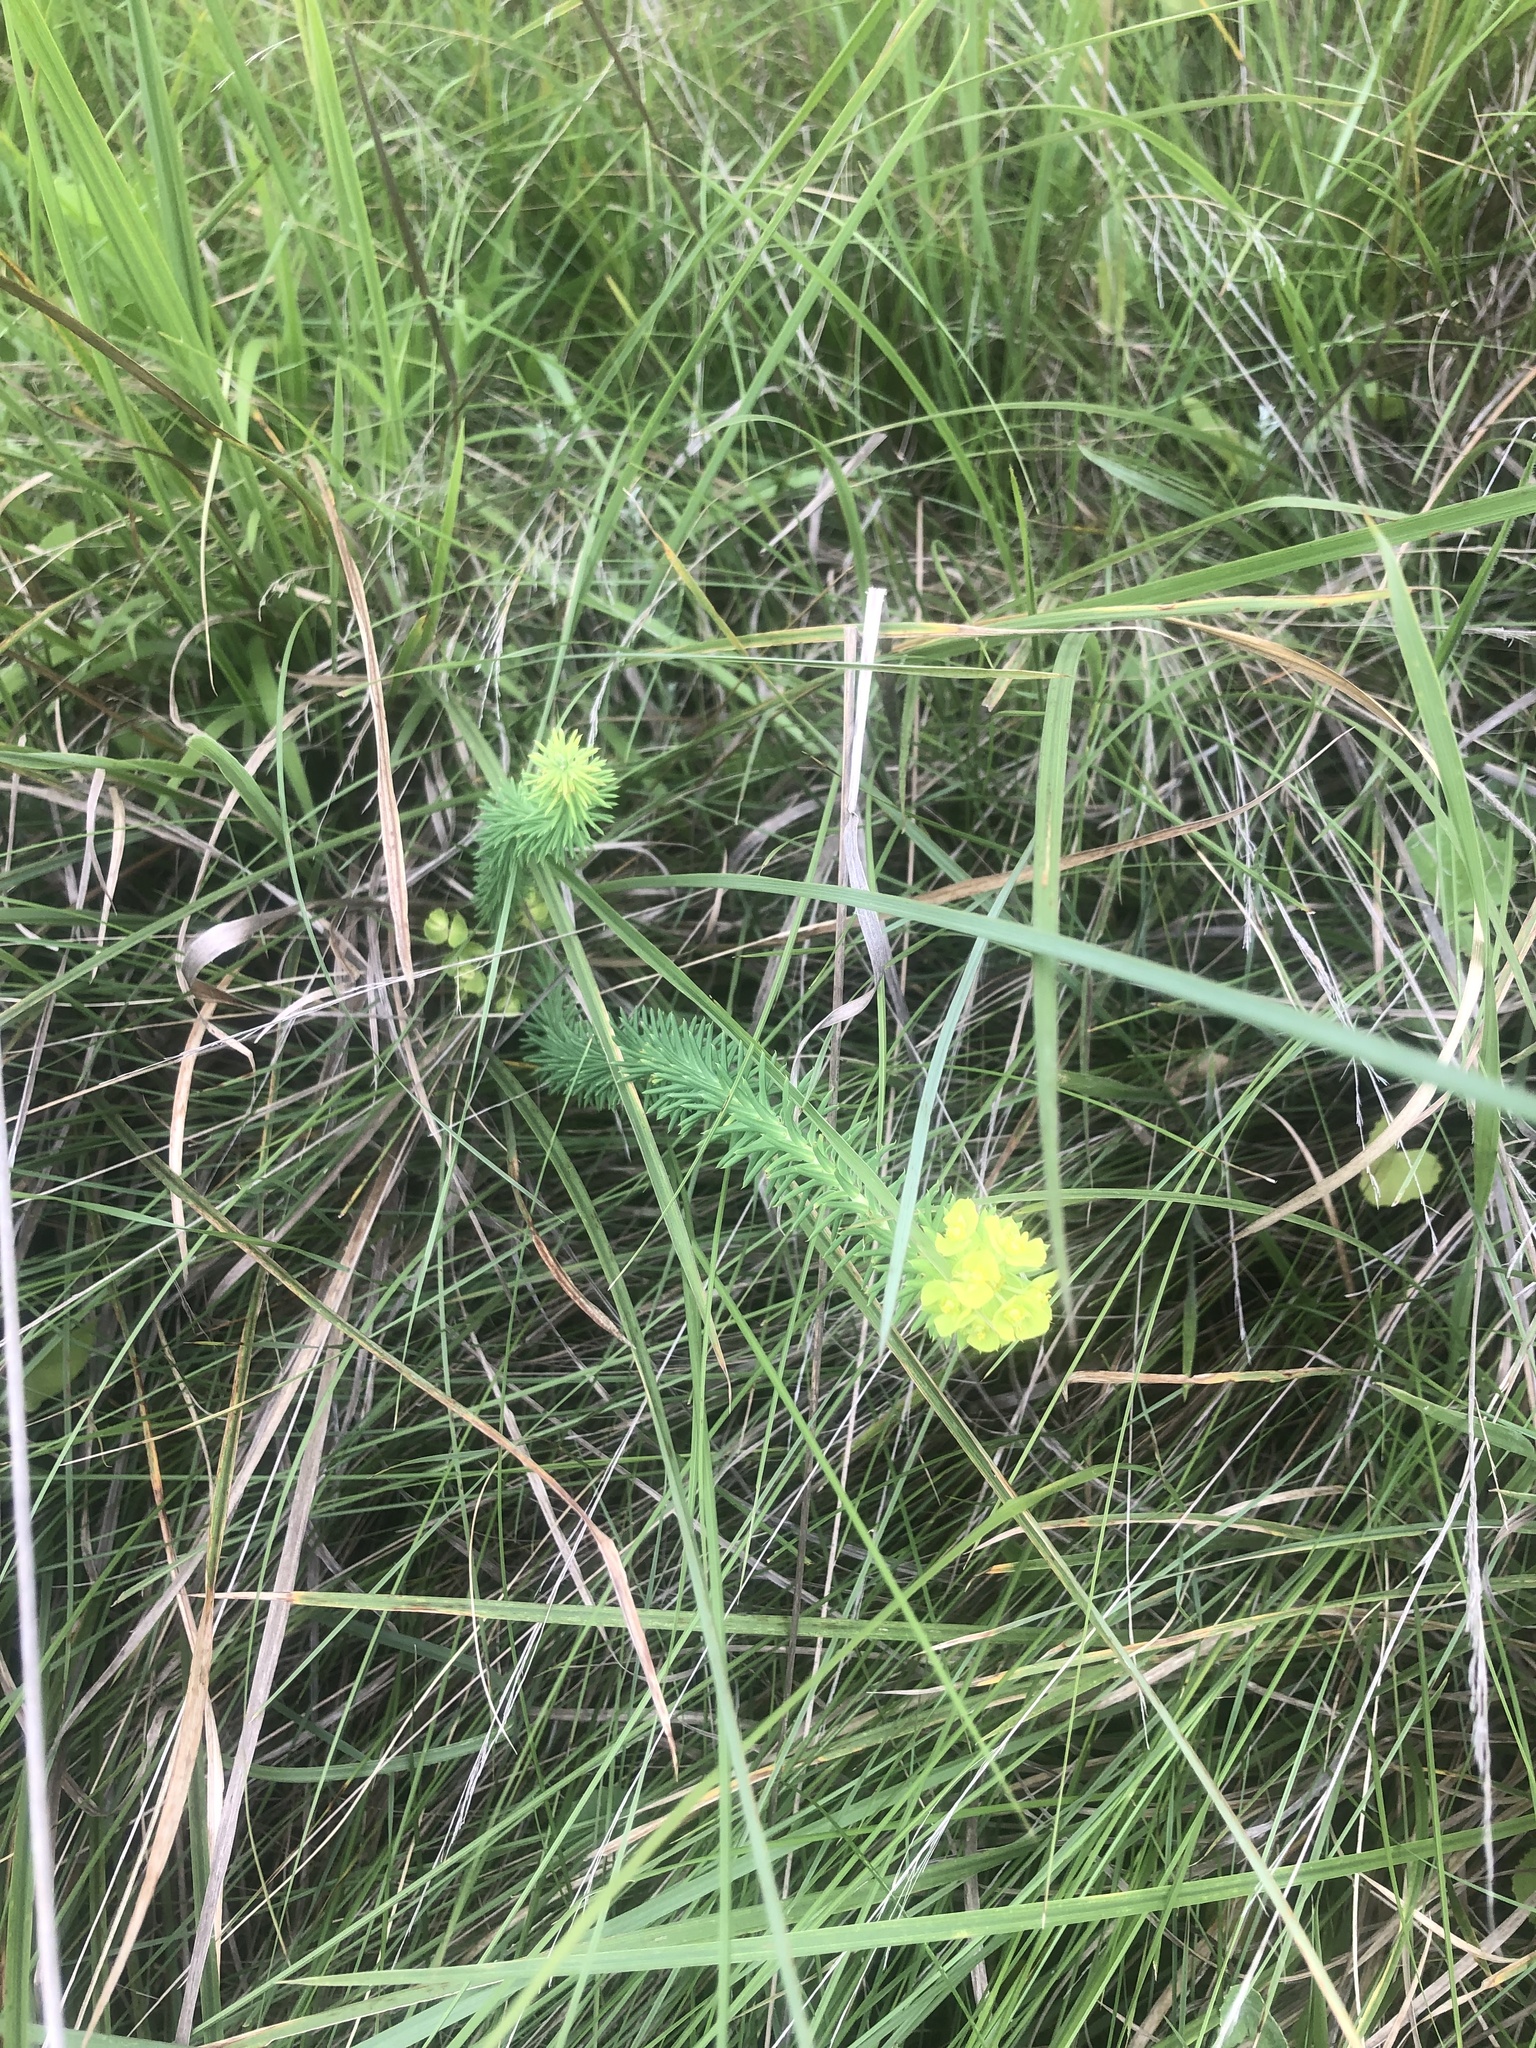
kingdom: Plantae
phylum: Tracheophyta
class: Magnoliopsida
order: Malpighiales
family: Euphorbiaceae
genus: Euphorbia
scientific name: Euphorbia natalensis
